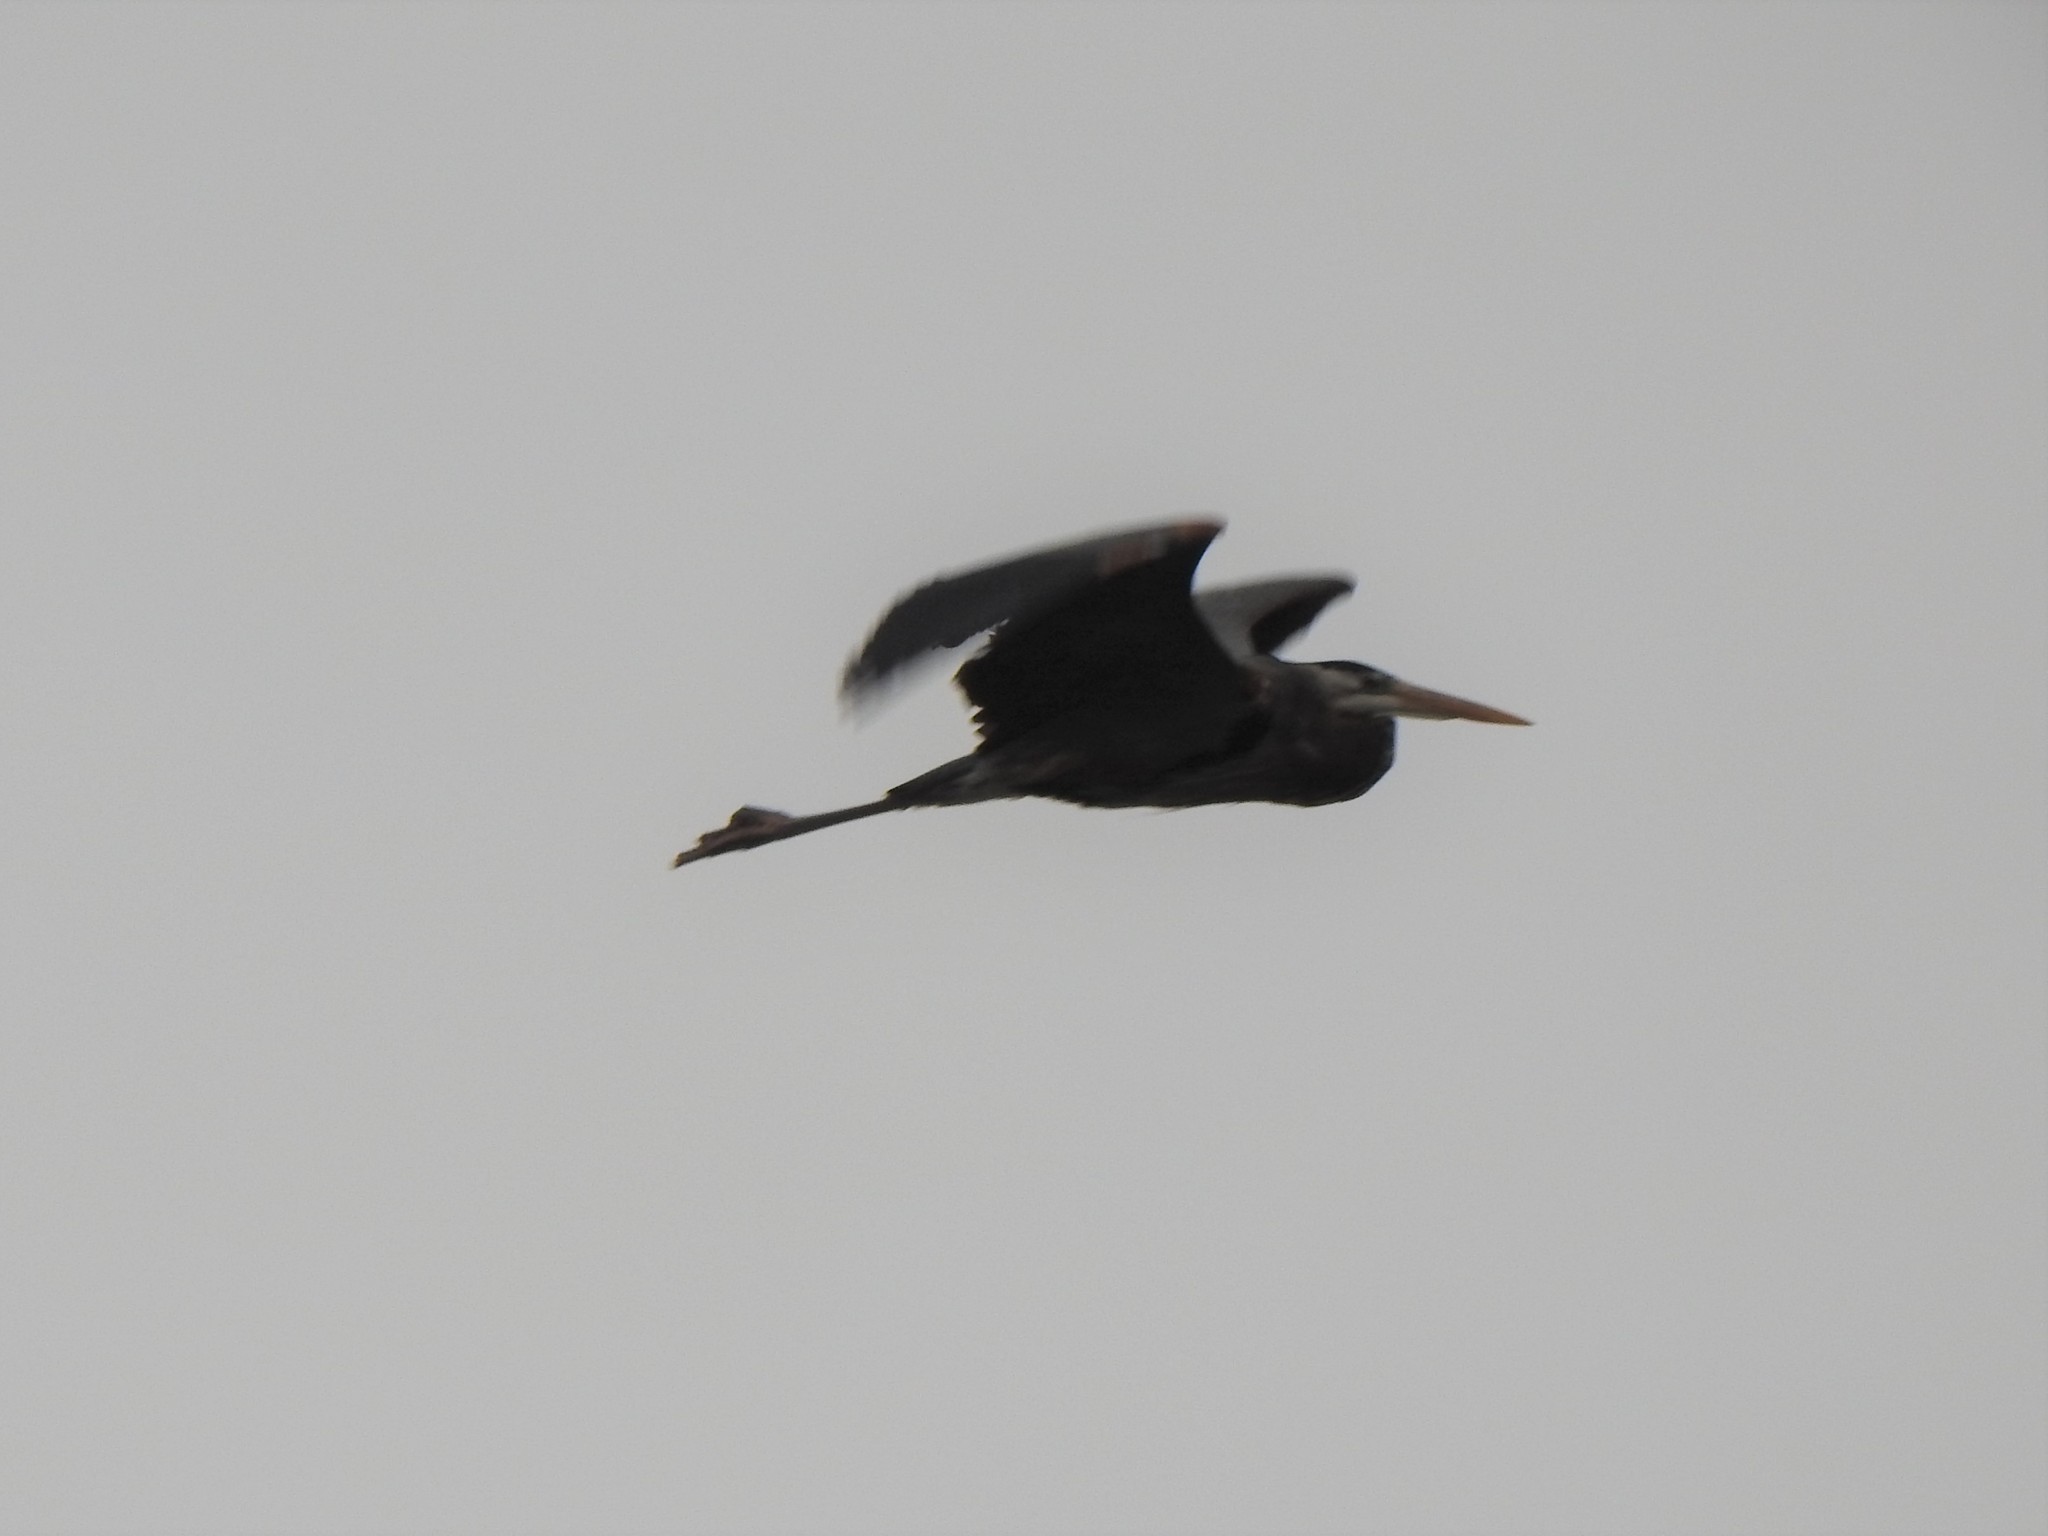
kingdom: Animalia
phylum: Chordata
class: Aves
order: Pelecaniformes
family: Ardeidae
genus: Ardea
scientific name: Ardea herodias
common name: Great blue heron
